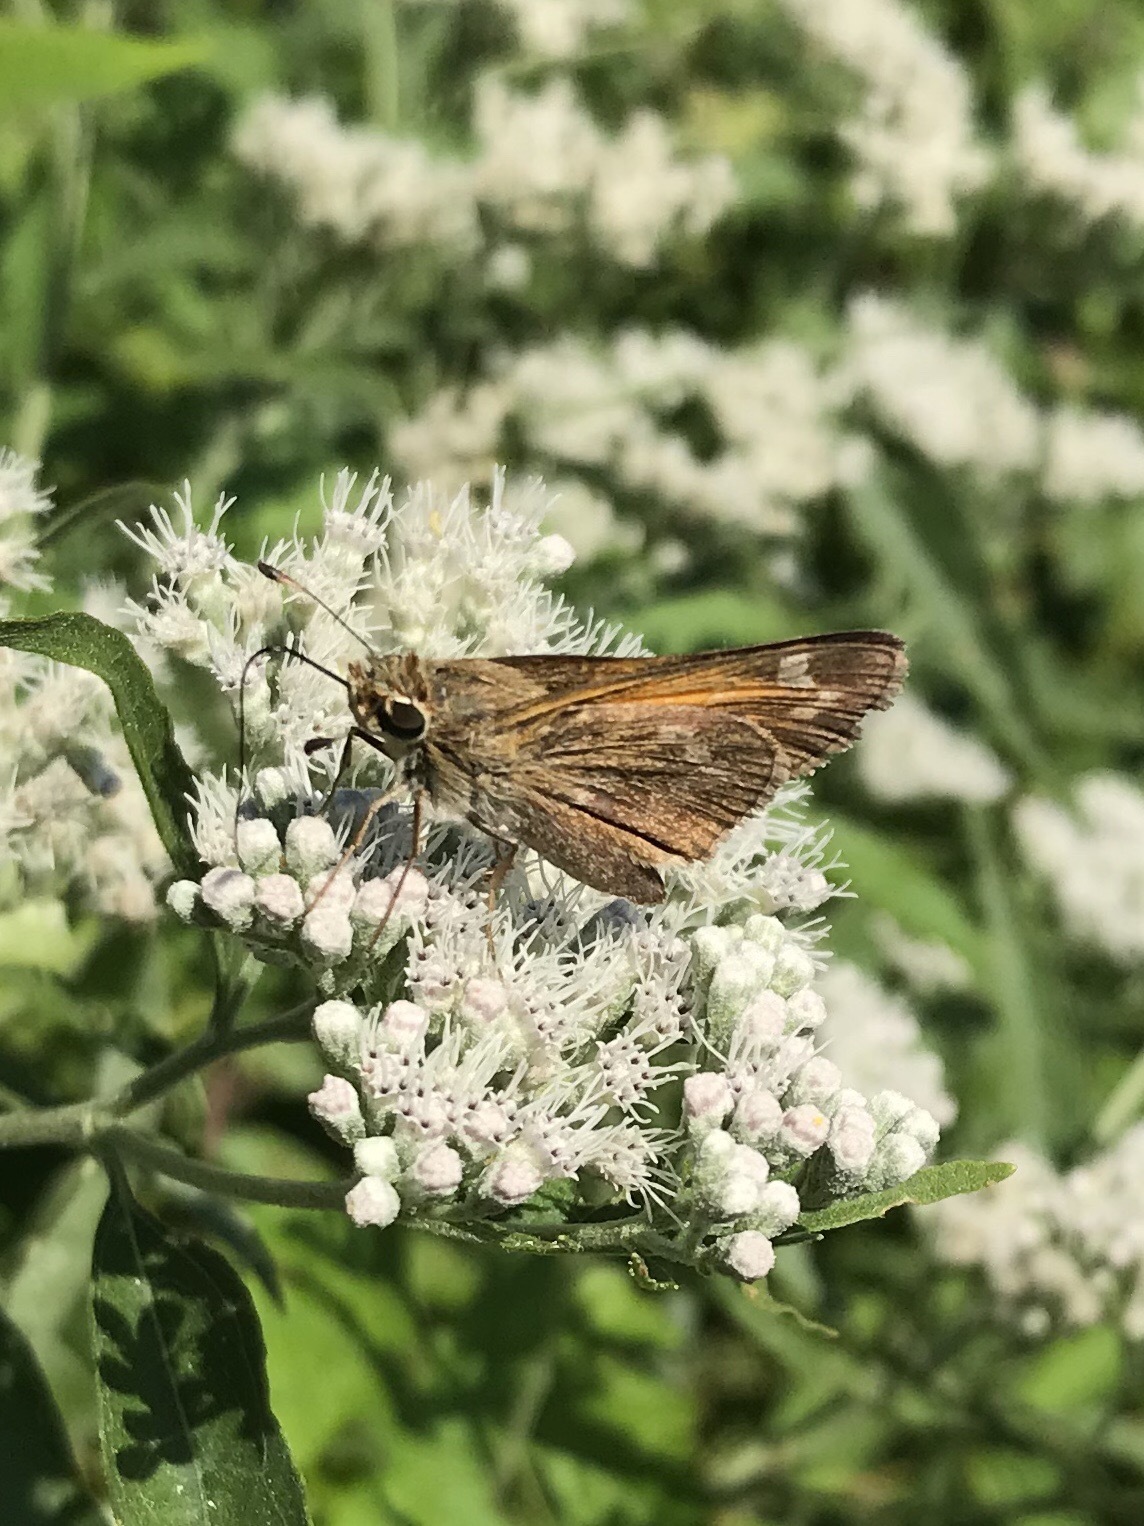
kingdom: Animalia
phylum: Arthropoda
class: Insecta
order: Lepidoptera
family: Hesperiidae
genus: Atalopedes
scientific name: Atalopedes
